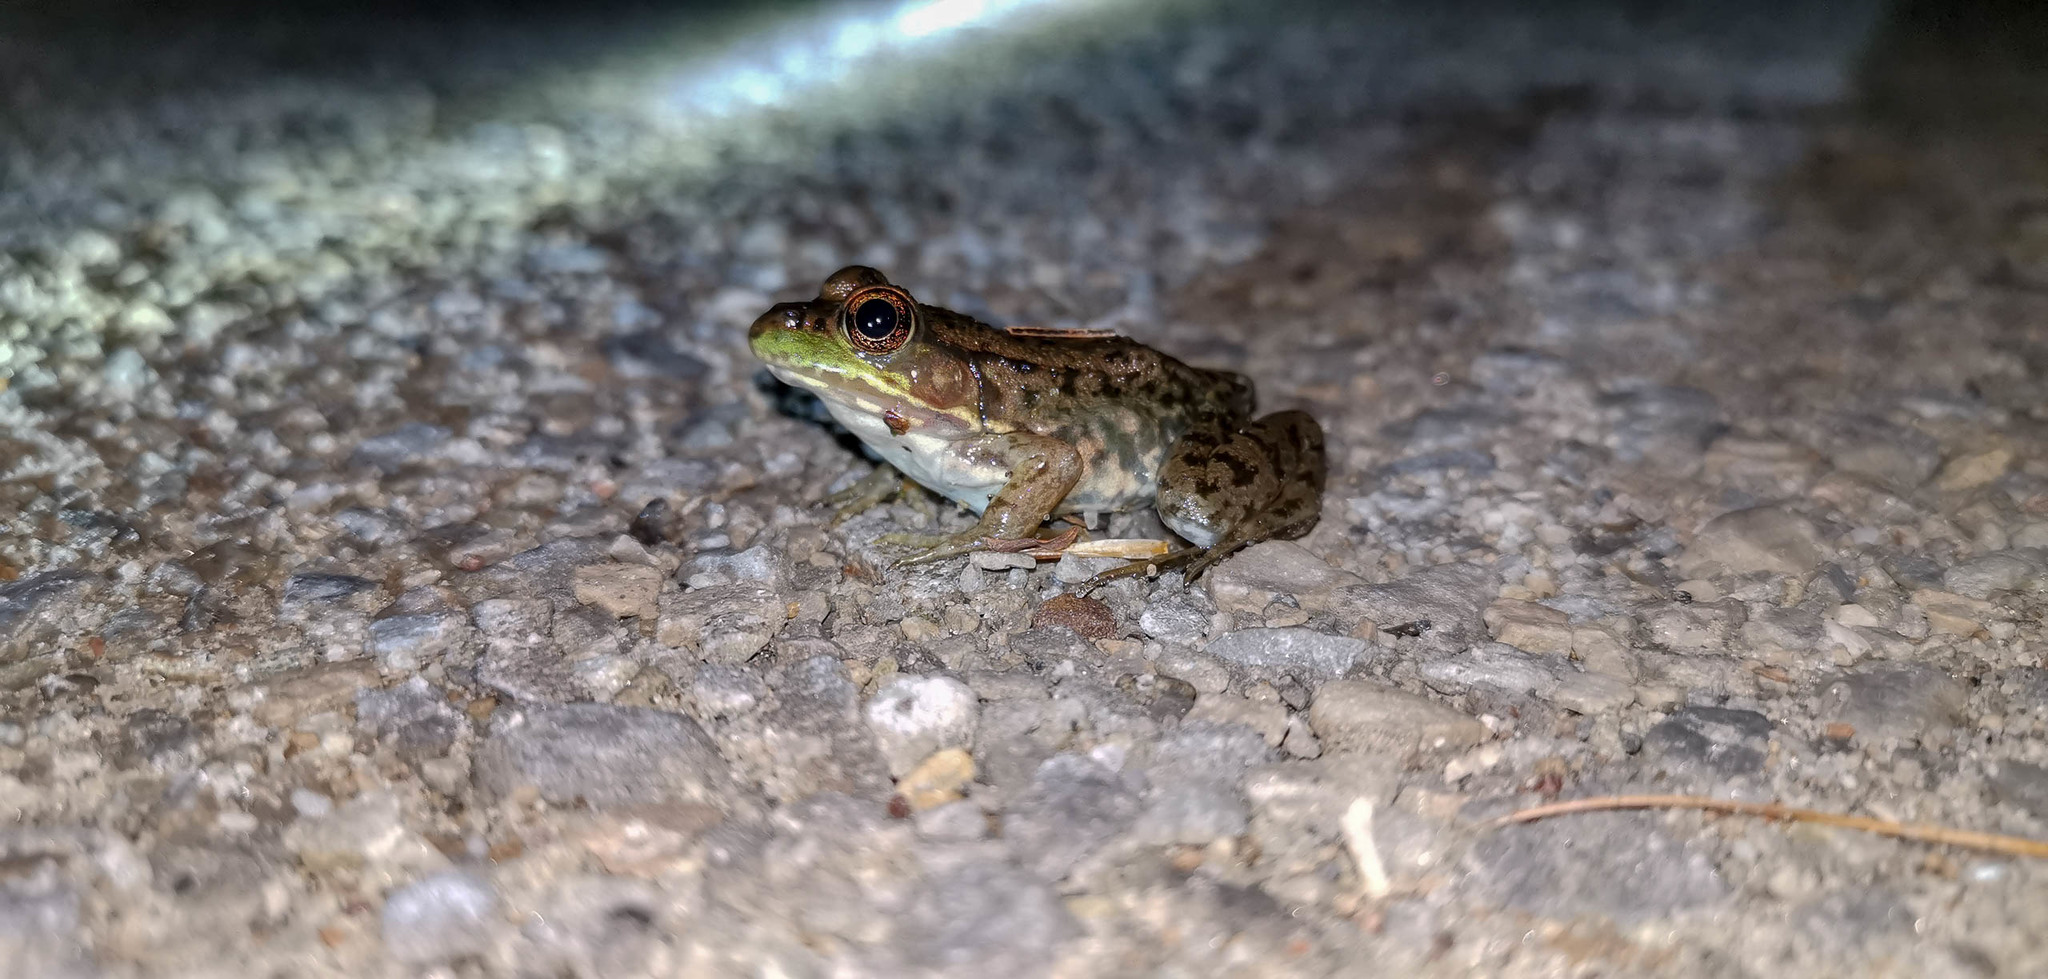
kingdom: Animalia
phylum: Chordata
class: Amphibia
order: Anura
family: Ranidae
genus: Lithobates
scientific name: Lithobates clamitans
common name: Green frog
